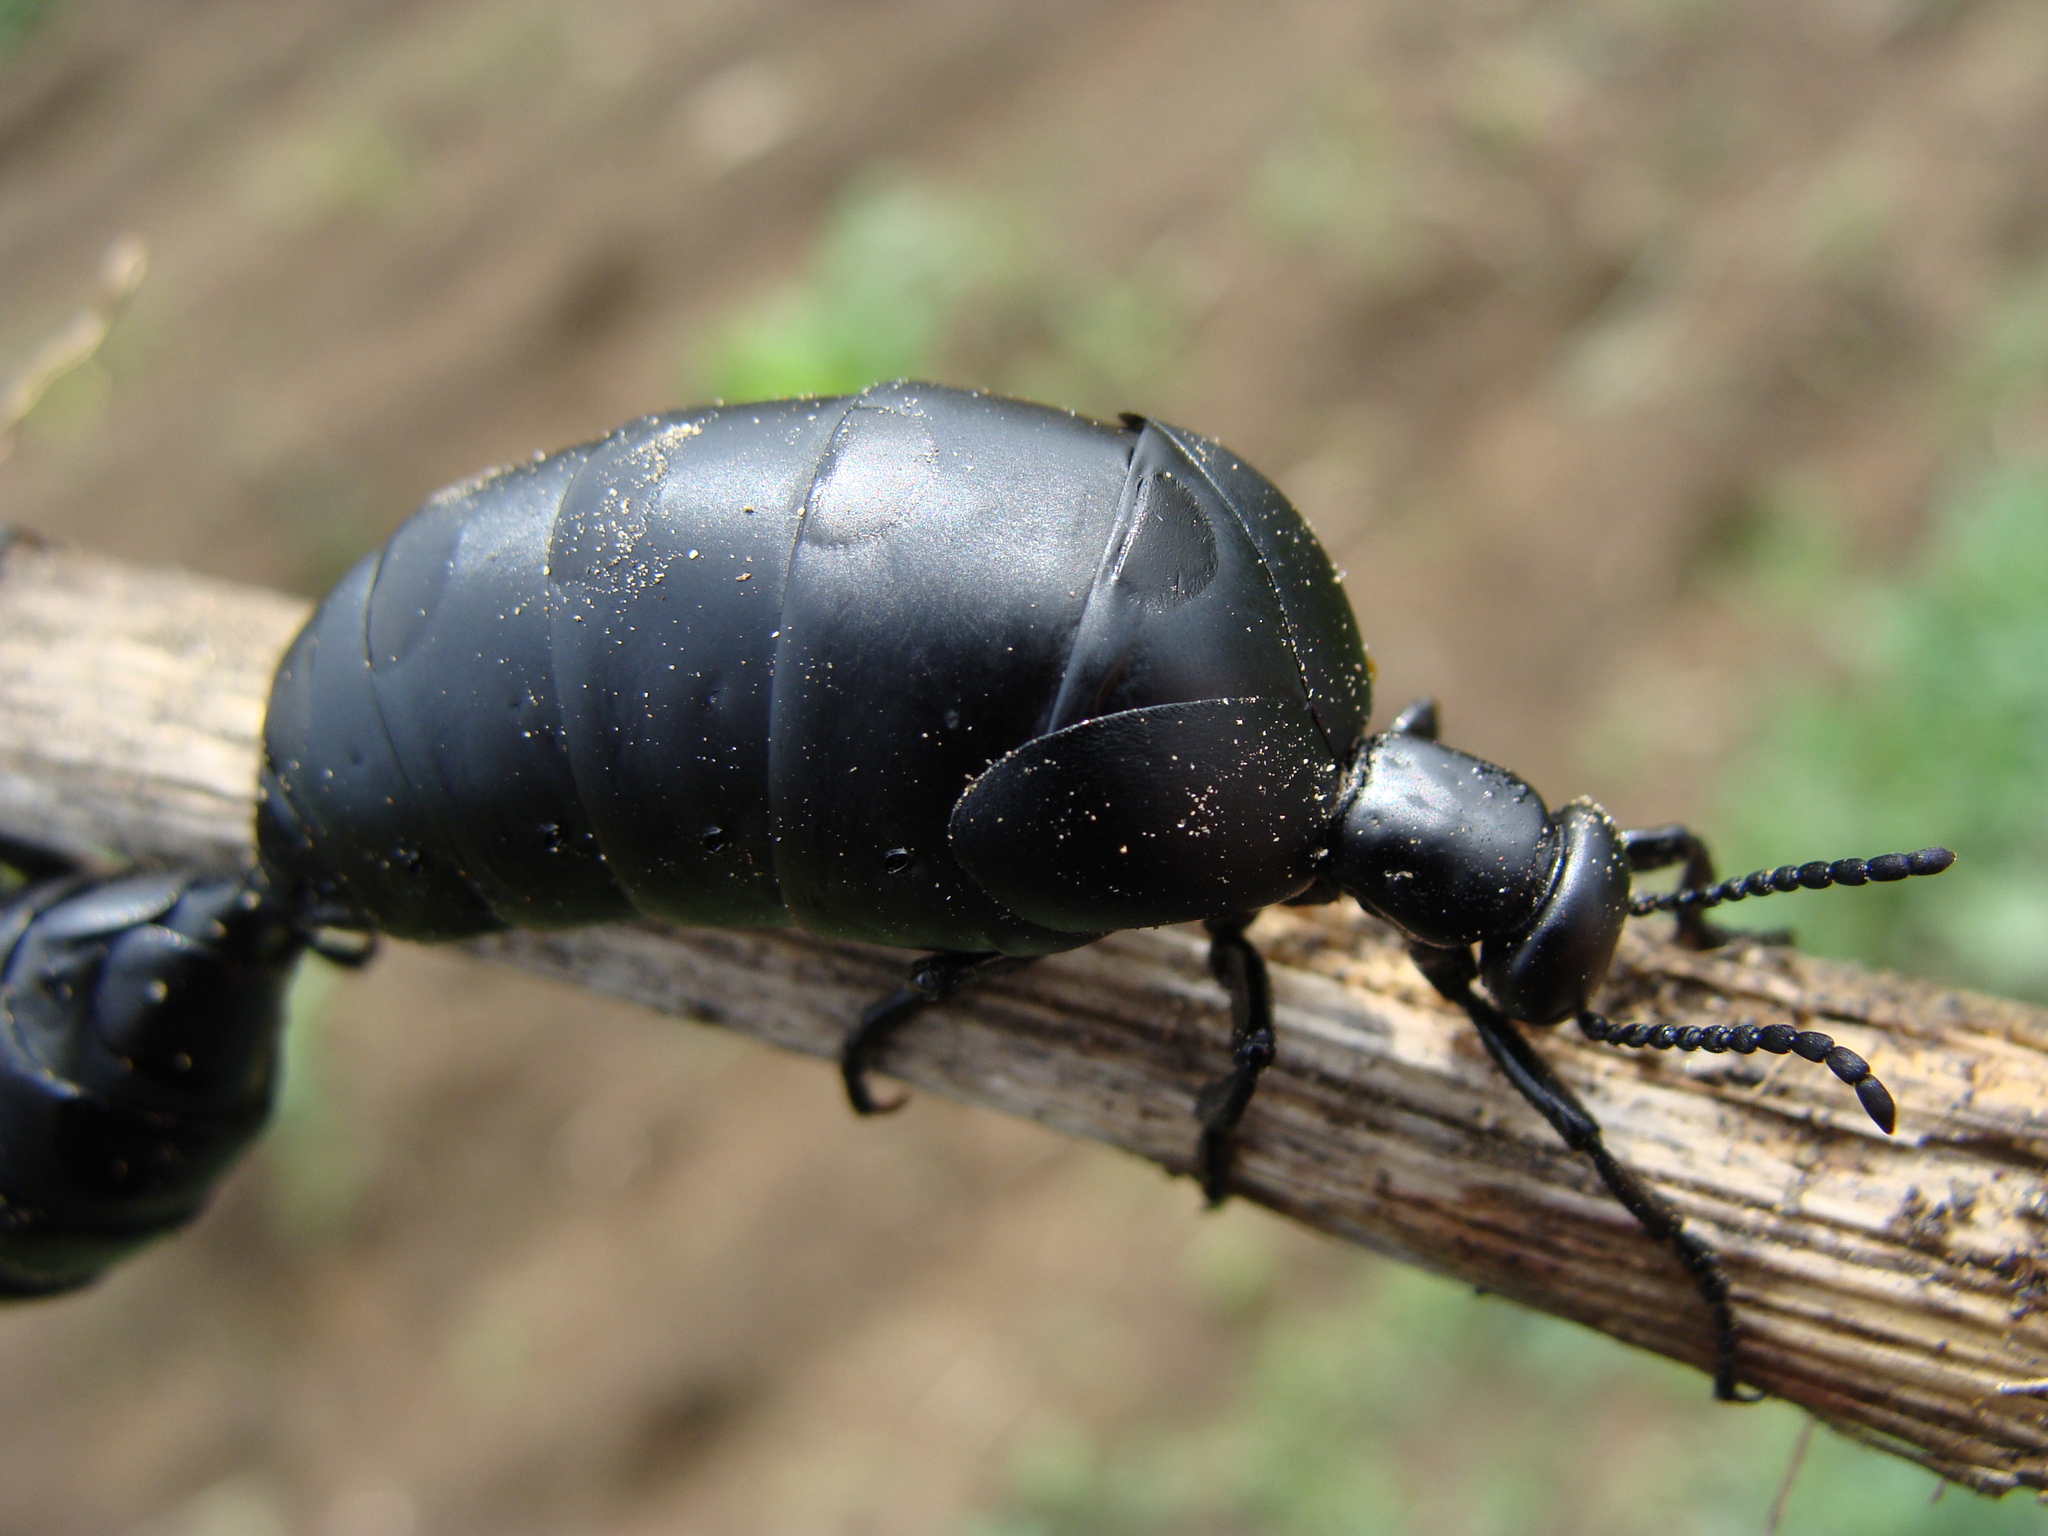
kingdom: Animalia
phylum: Arthropoda
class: Insecta
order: Coleoptera
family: Meloidae
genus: Meloe
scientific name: Meloe laevis
